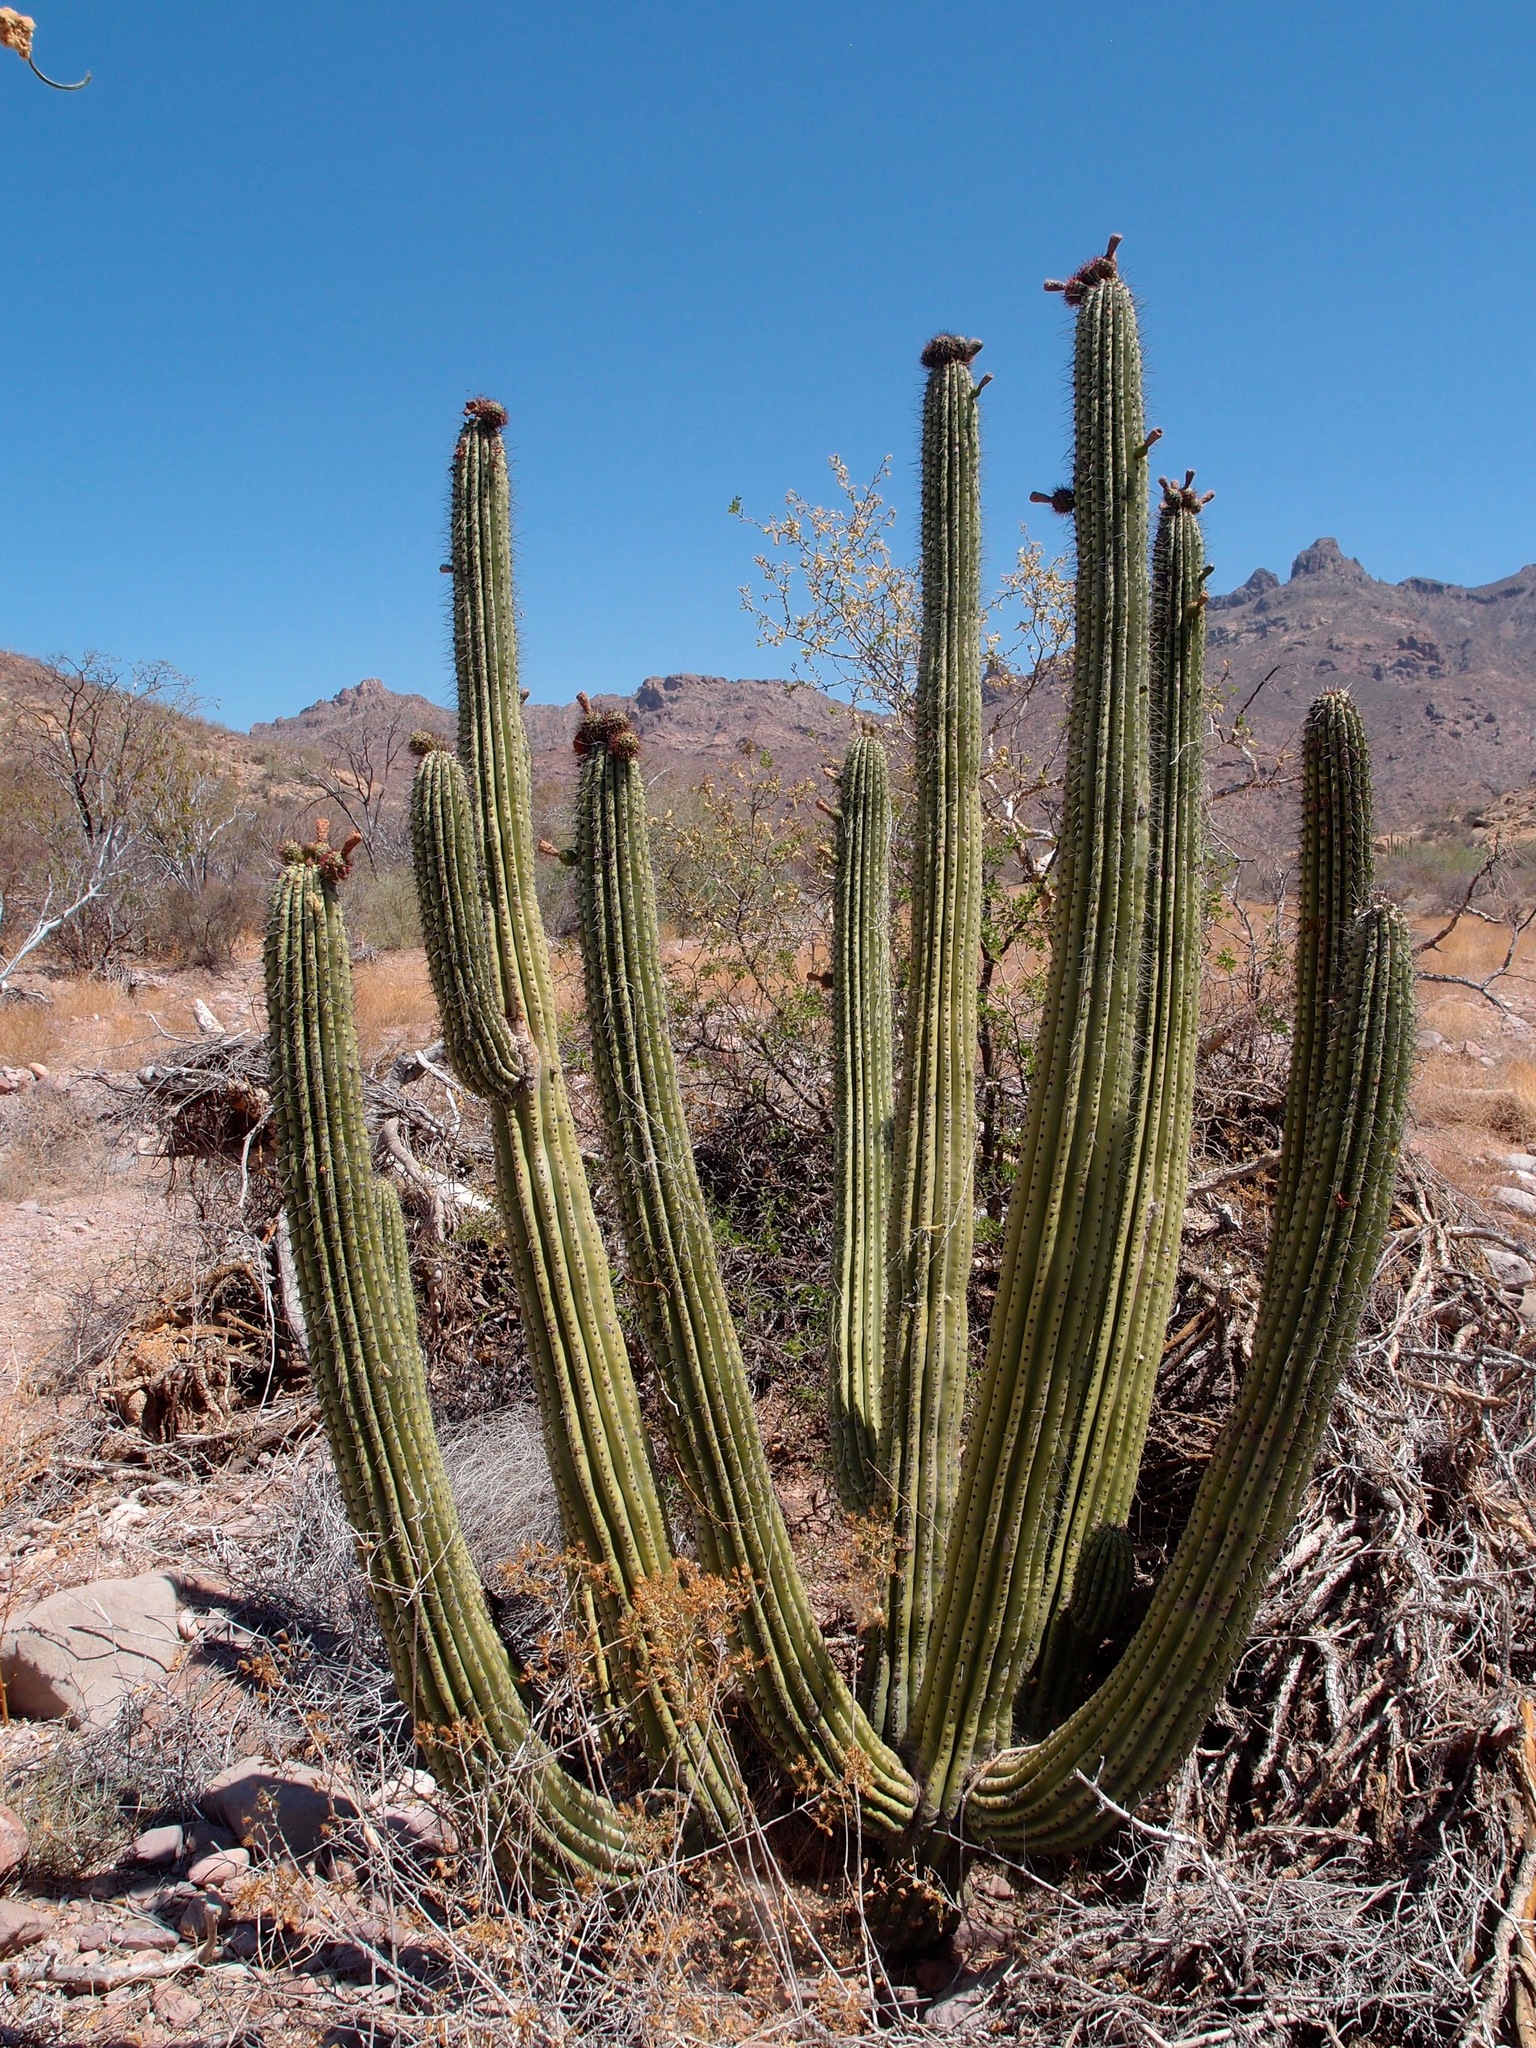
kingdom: Plantae
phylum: Tracheophyta
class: Magnoliopsida
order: Caryophyllales
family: Cactaceae
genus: Stenocereus
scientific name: Stenocereus thurberi
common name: Organ pipe cactus
